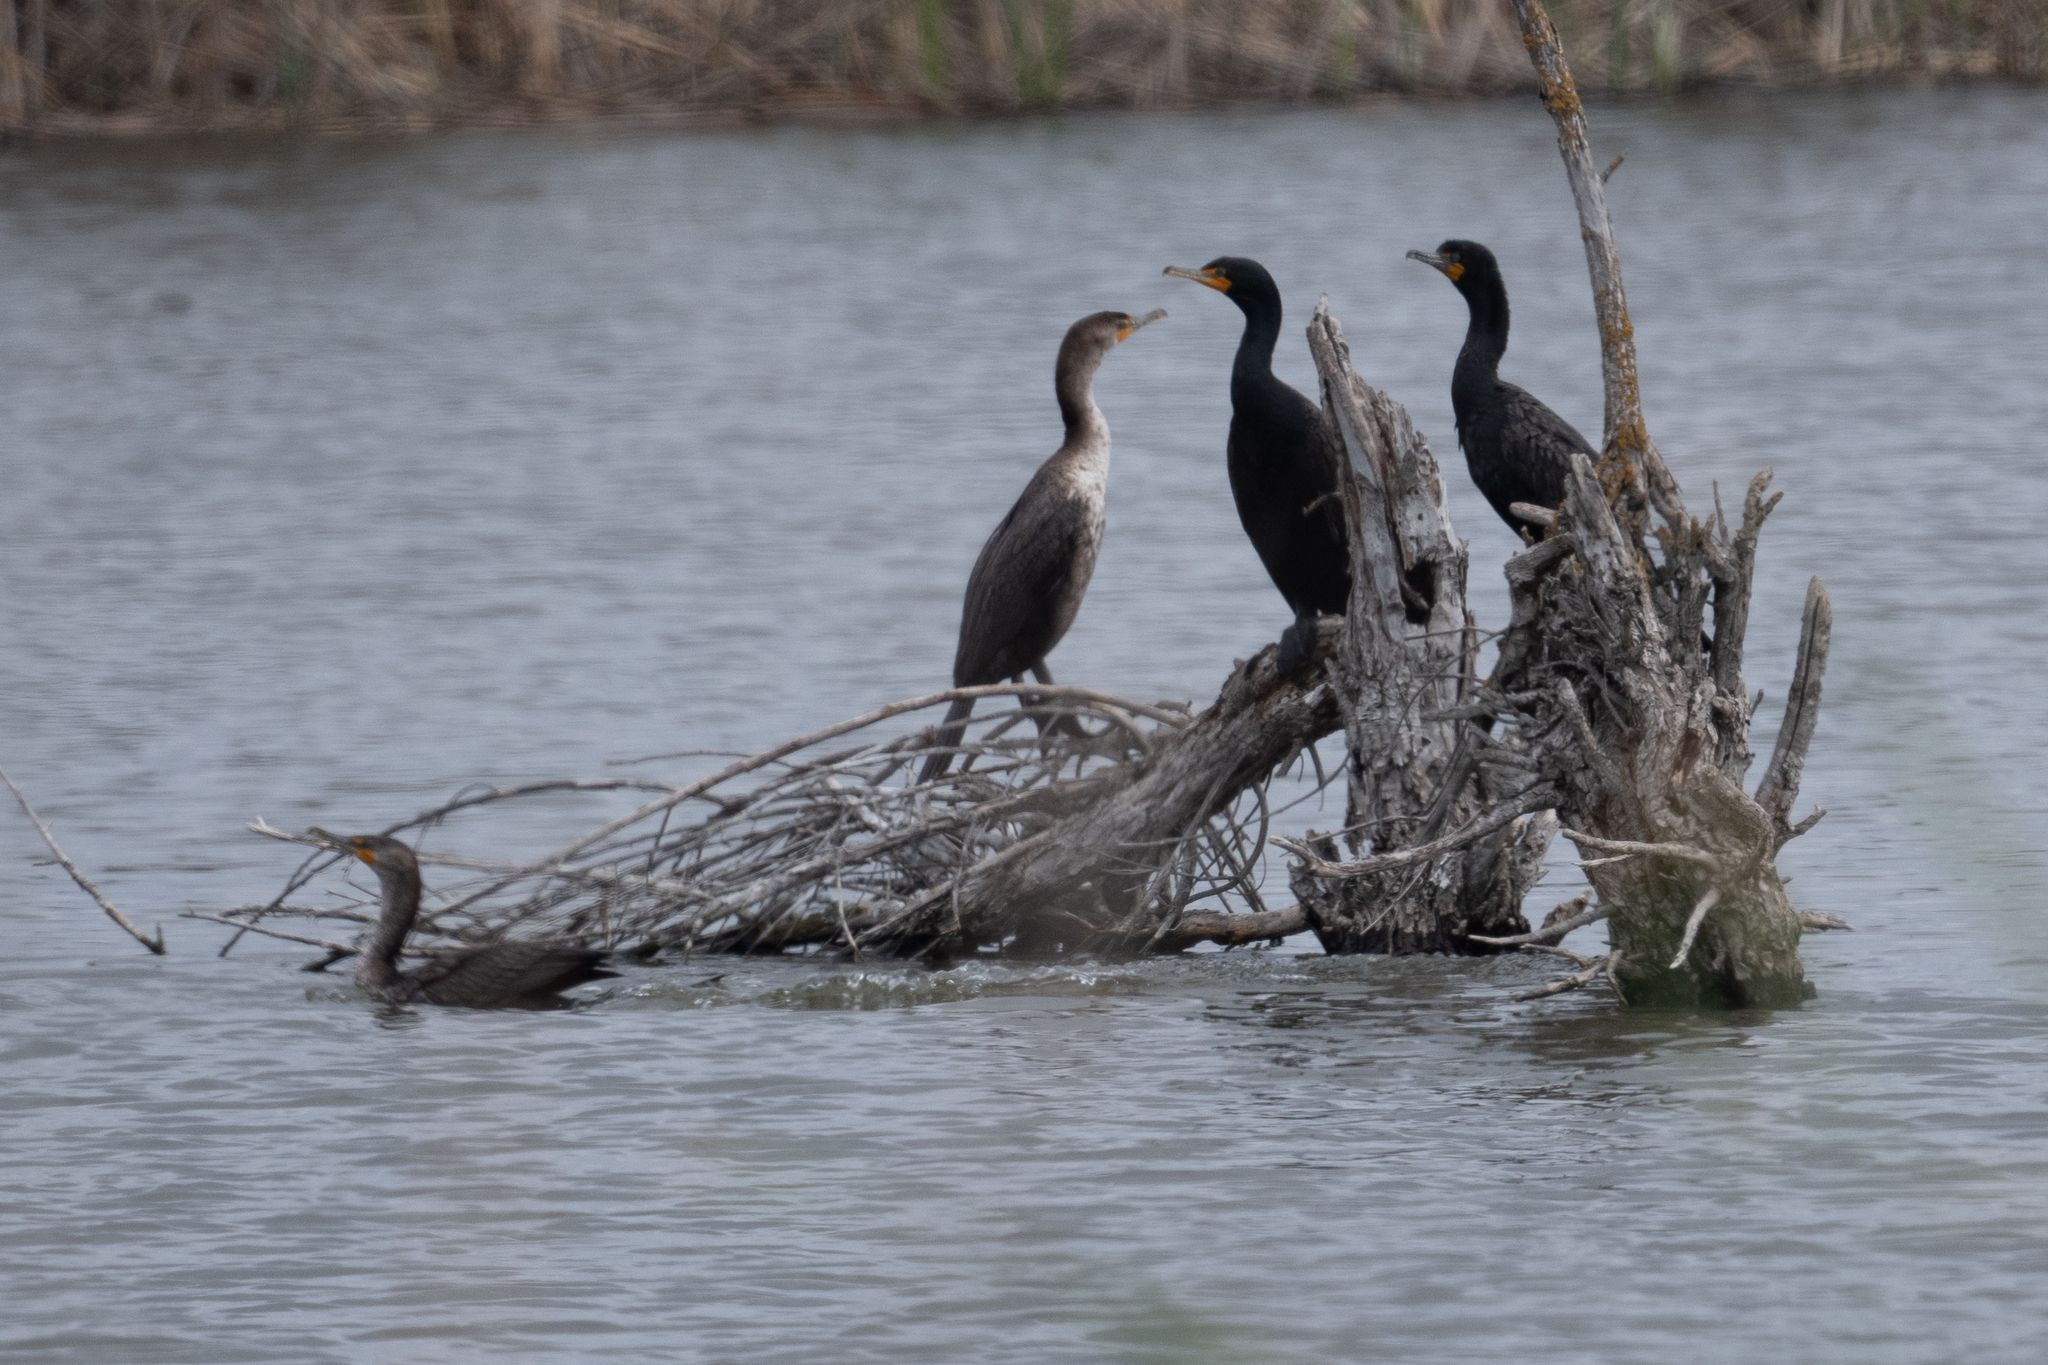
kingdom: Animalia
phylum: Chordata
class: Aves
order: Suliformes
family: Phalacrocoracidae
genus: Phalacrocorax
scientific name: Phalacrocorax auritus
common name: Double-crested cormorant
